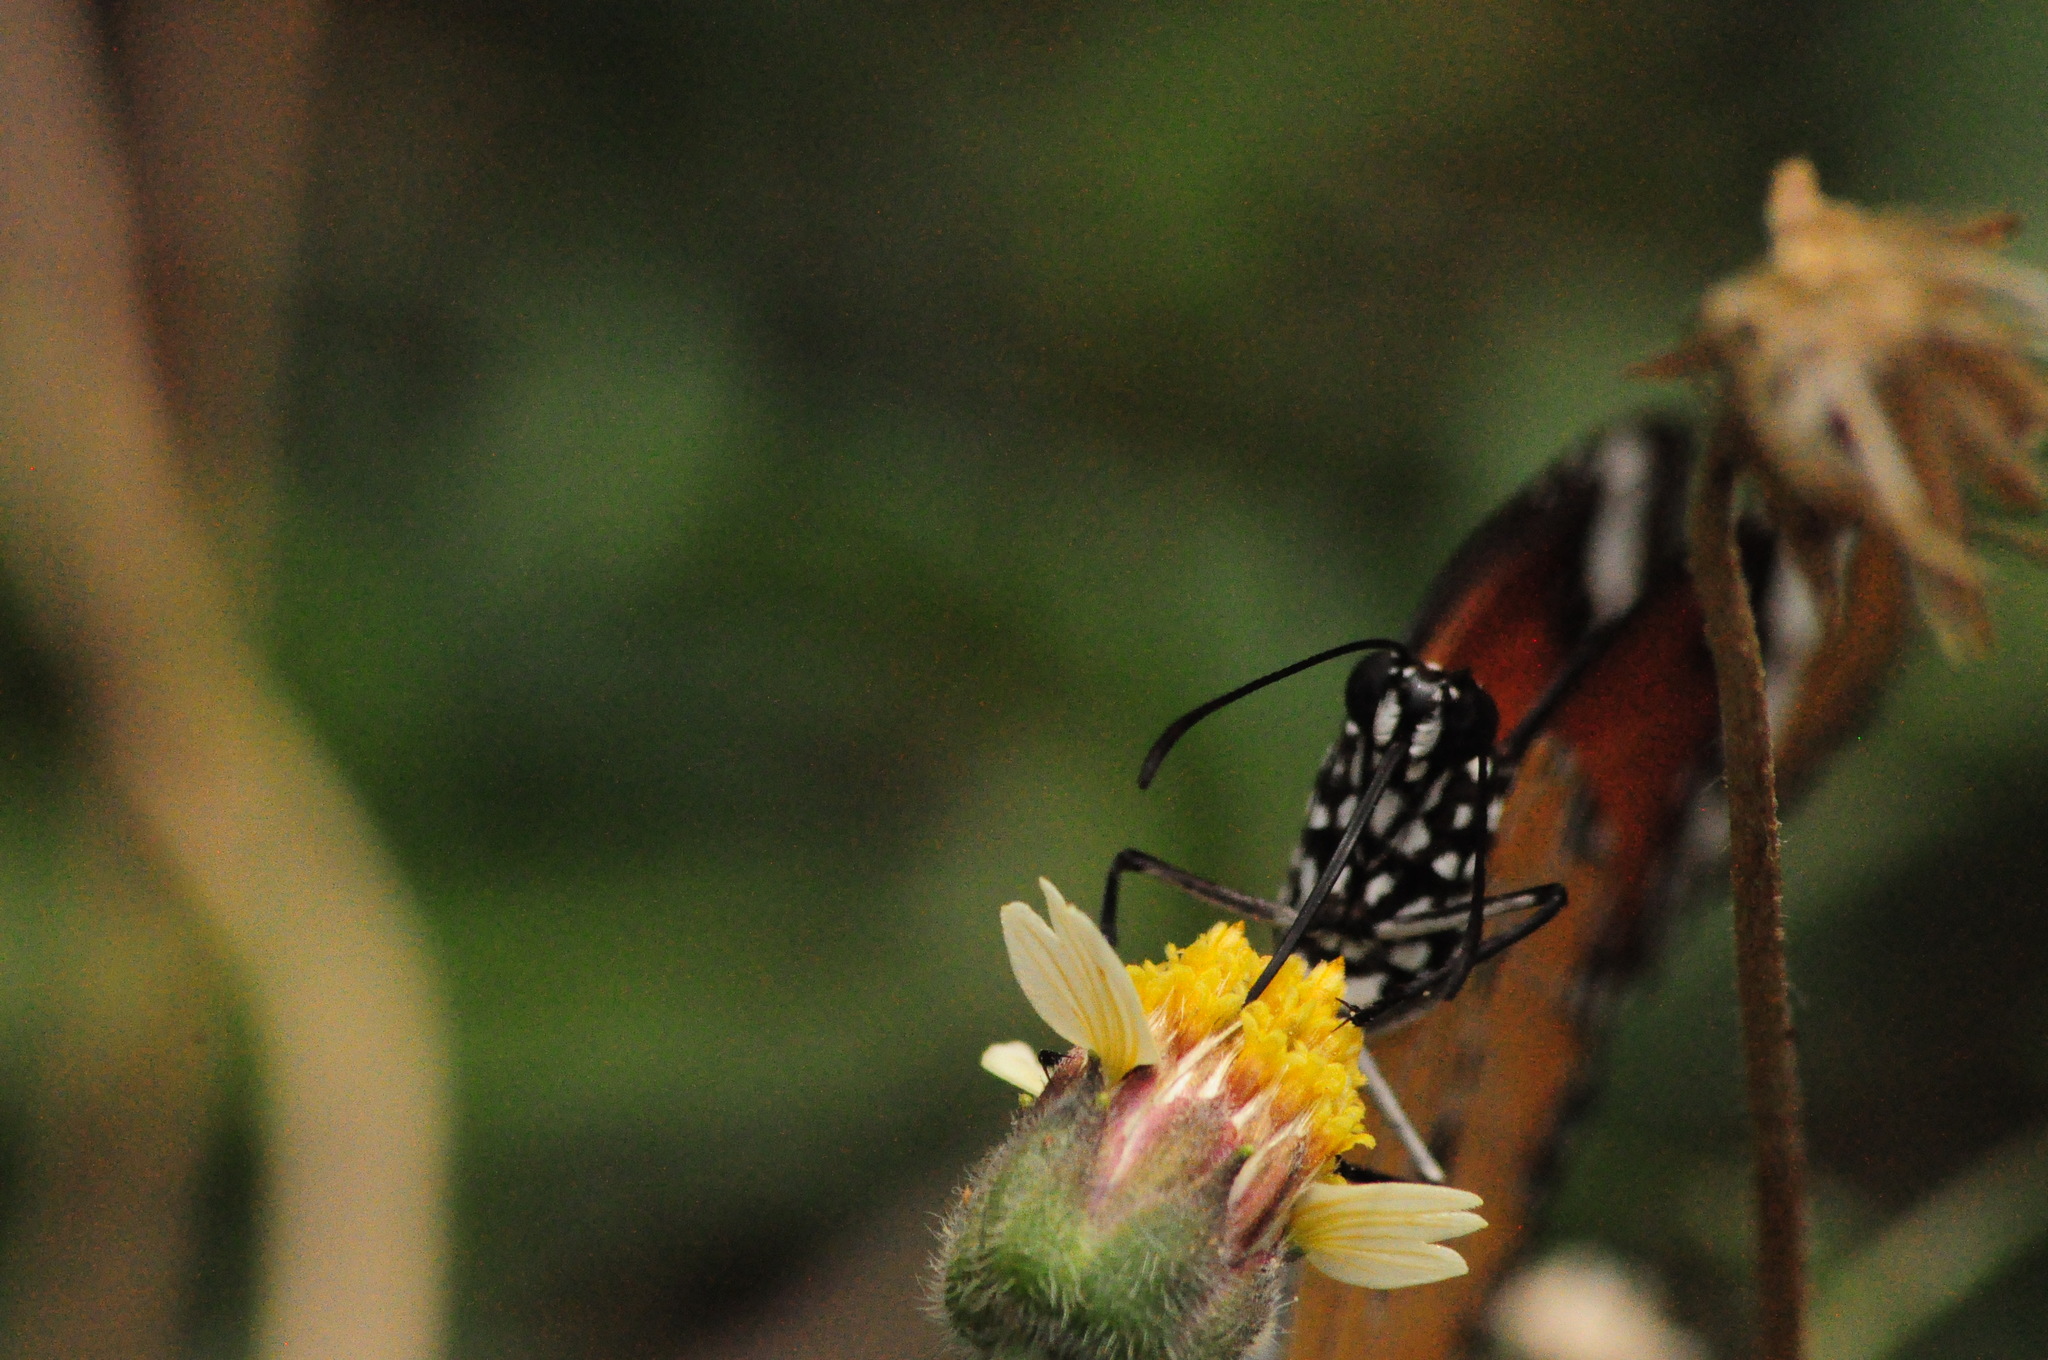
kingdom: Animalia
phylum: Arthropoda
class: Insecta
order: Lepidoptera
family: Nymphalidae
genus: Danaus
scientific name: Danaus chrysippus
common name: Plain tiger
